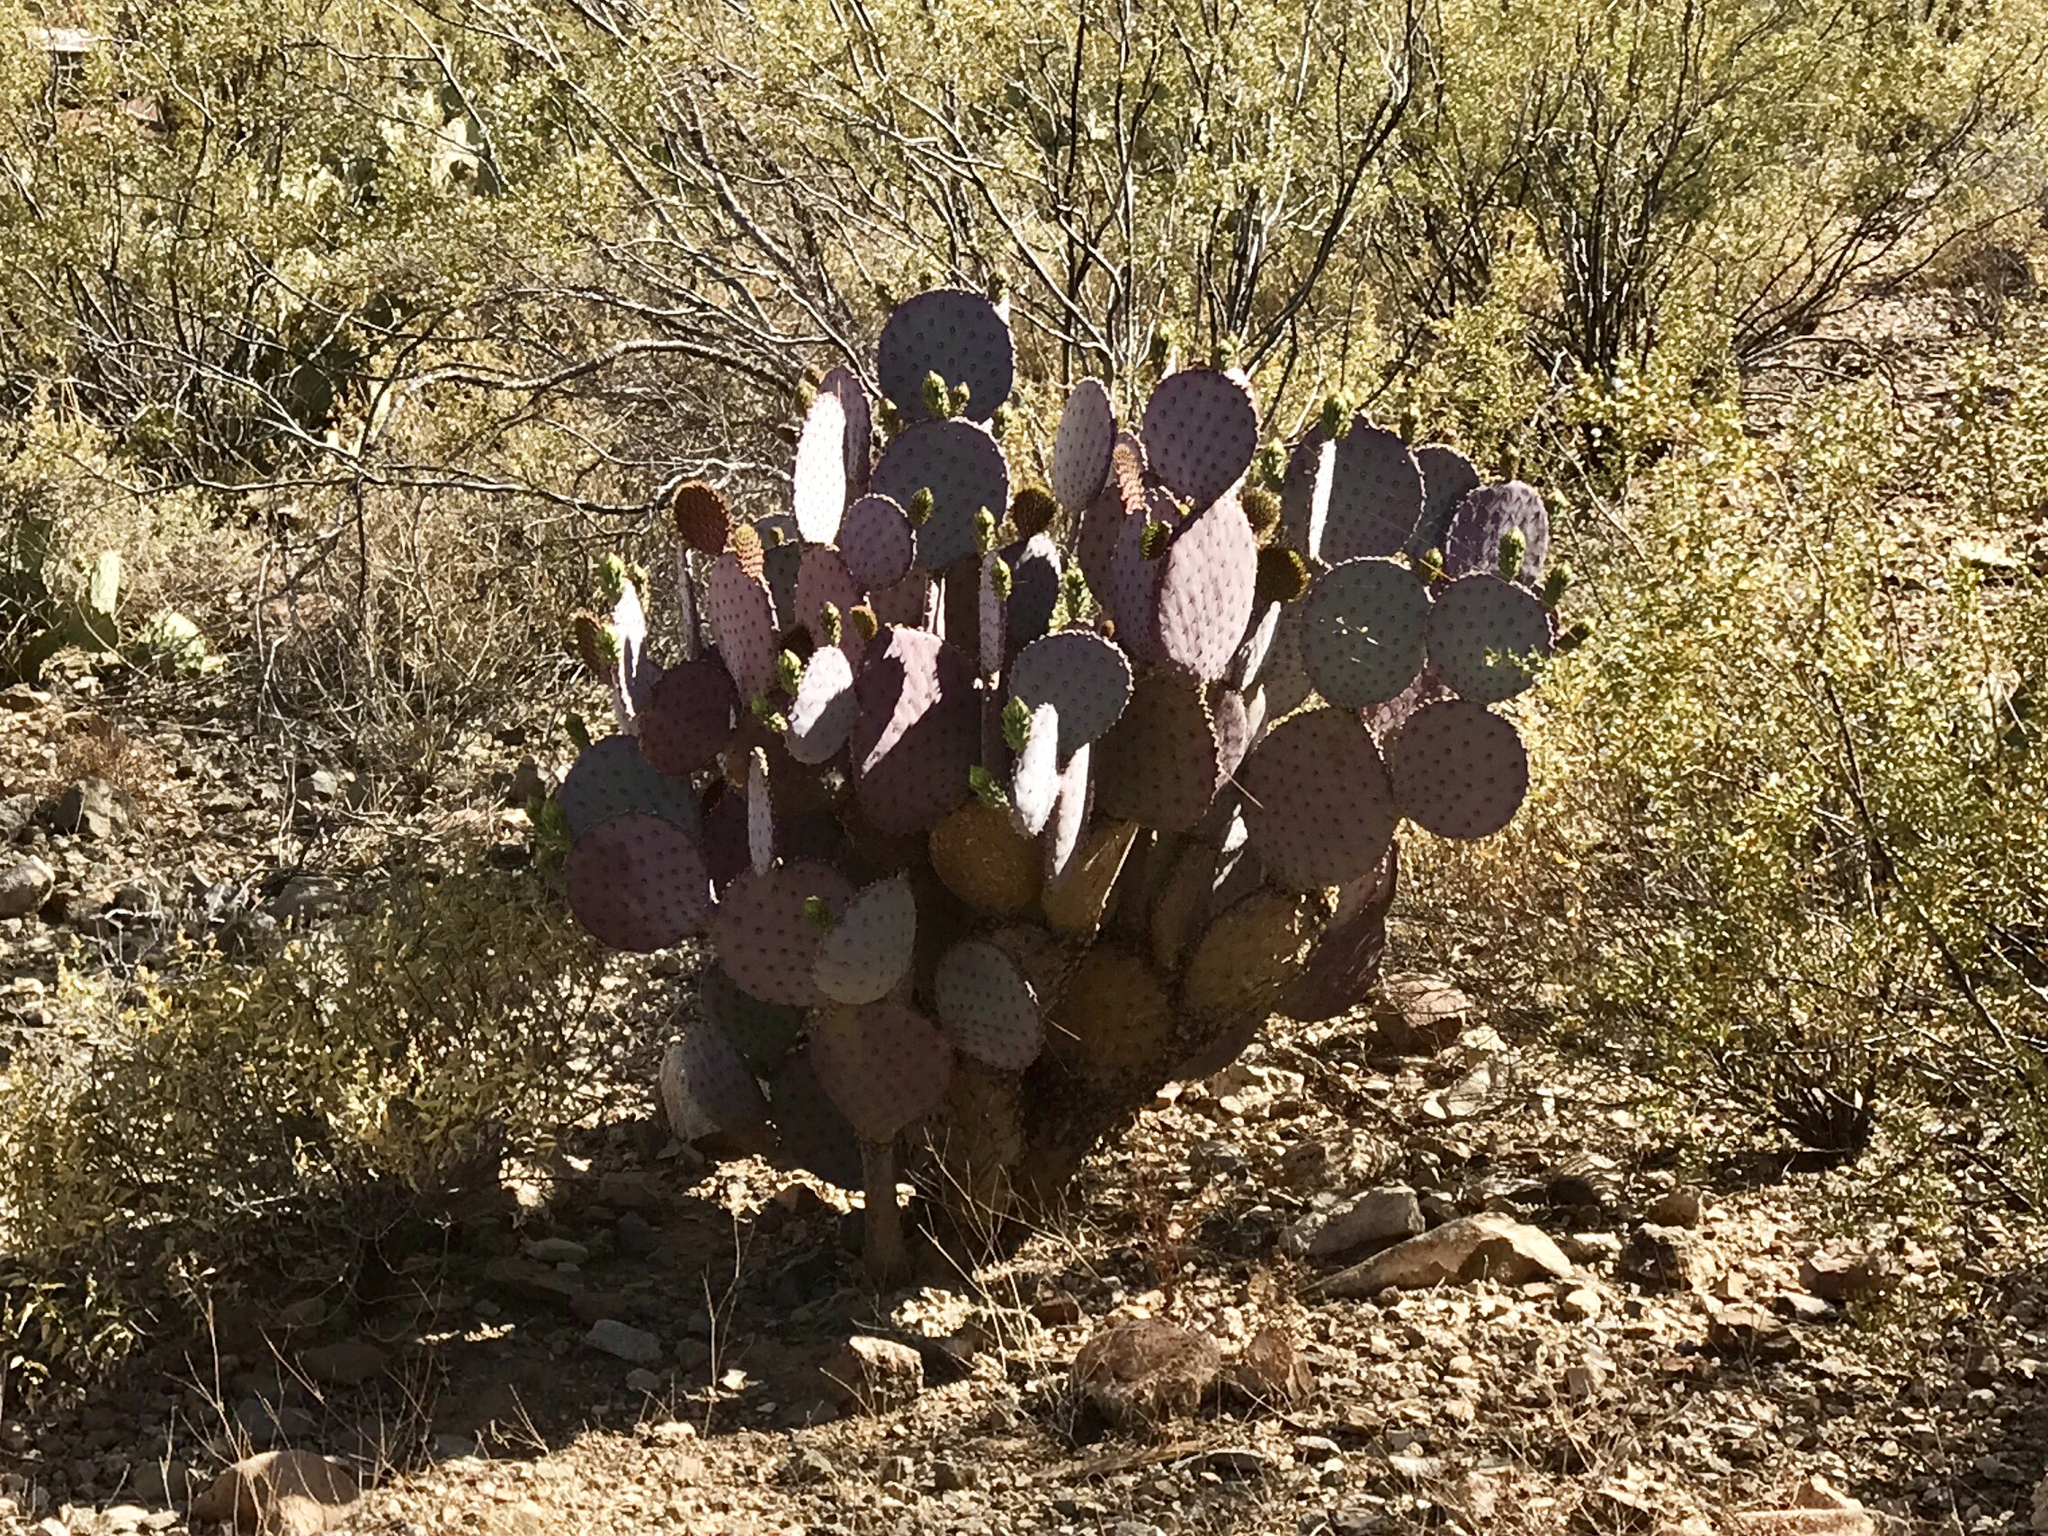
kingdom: Plantae
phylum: Tracheophyta
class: Magnoliopsida
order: Caryophyllales
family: Cactaceae
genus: Opuntia
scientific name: Opuntia gosseliniana
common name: Violet prickly-pear
